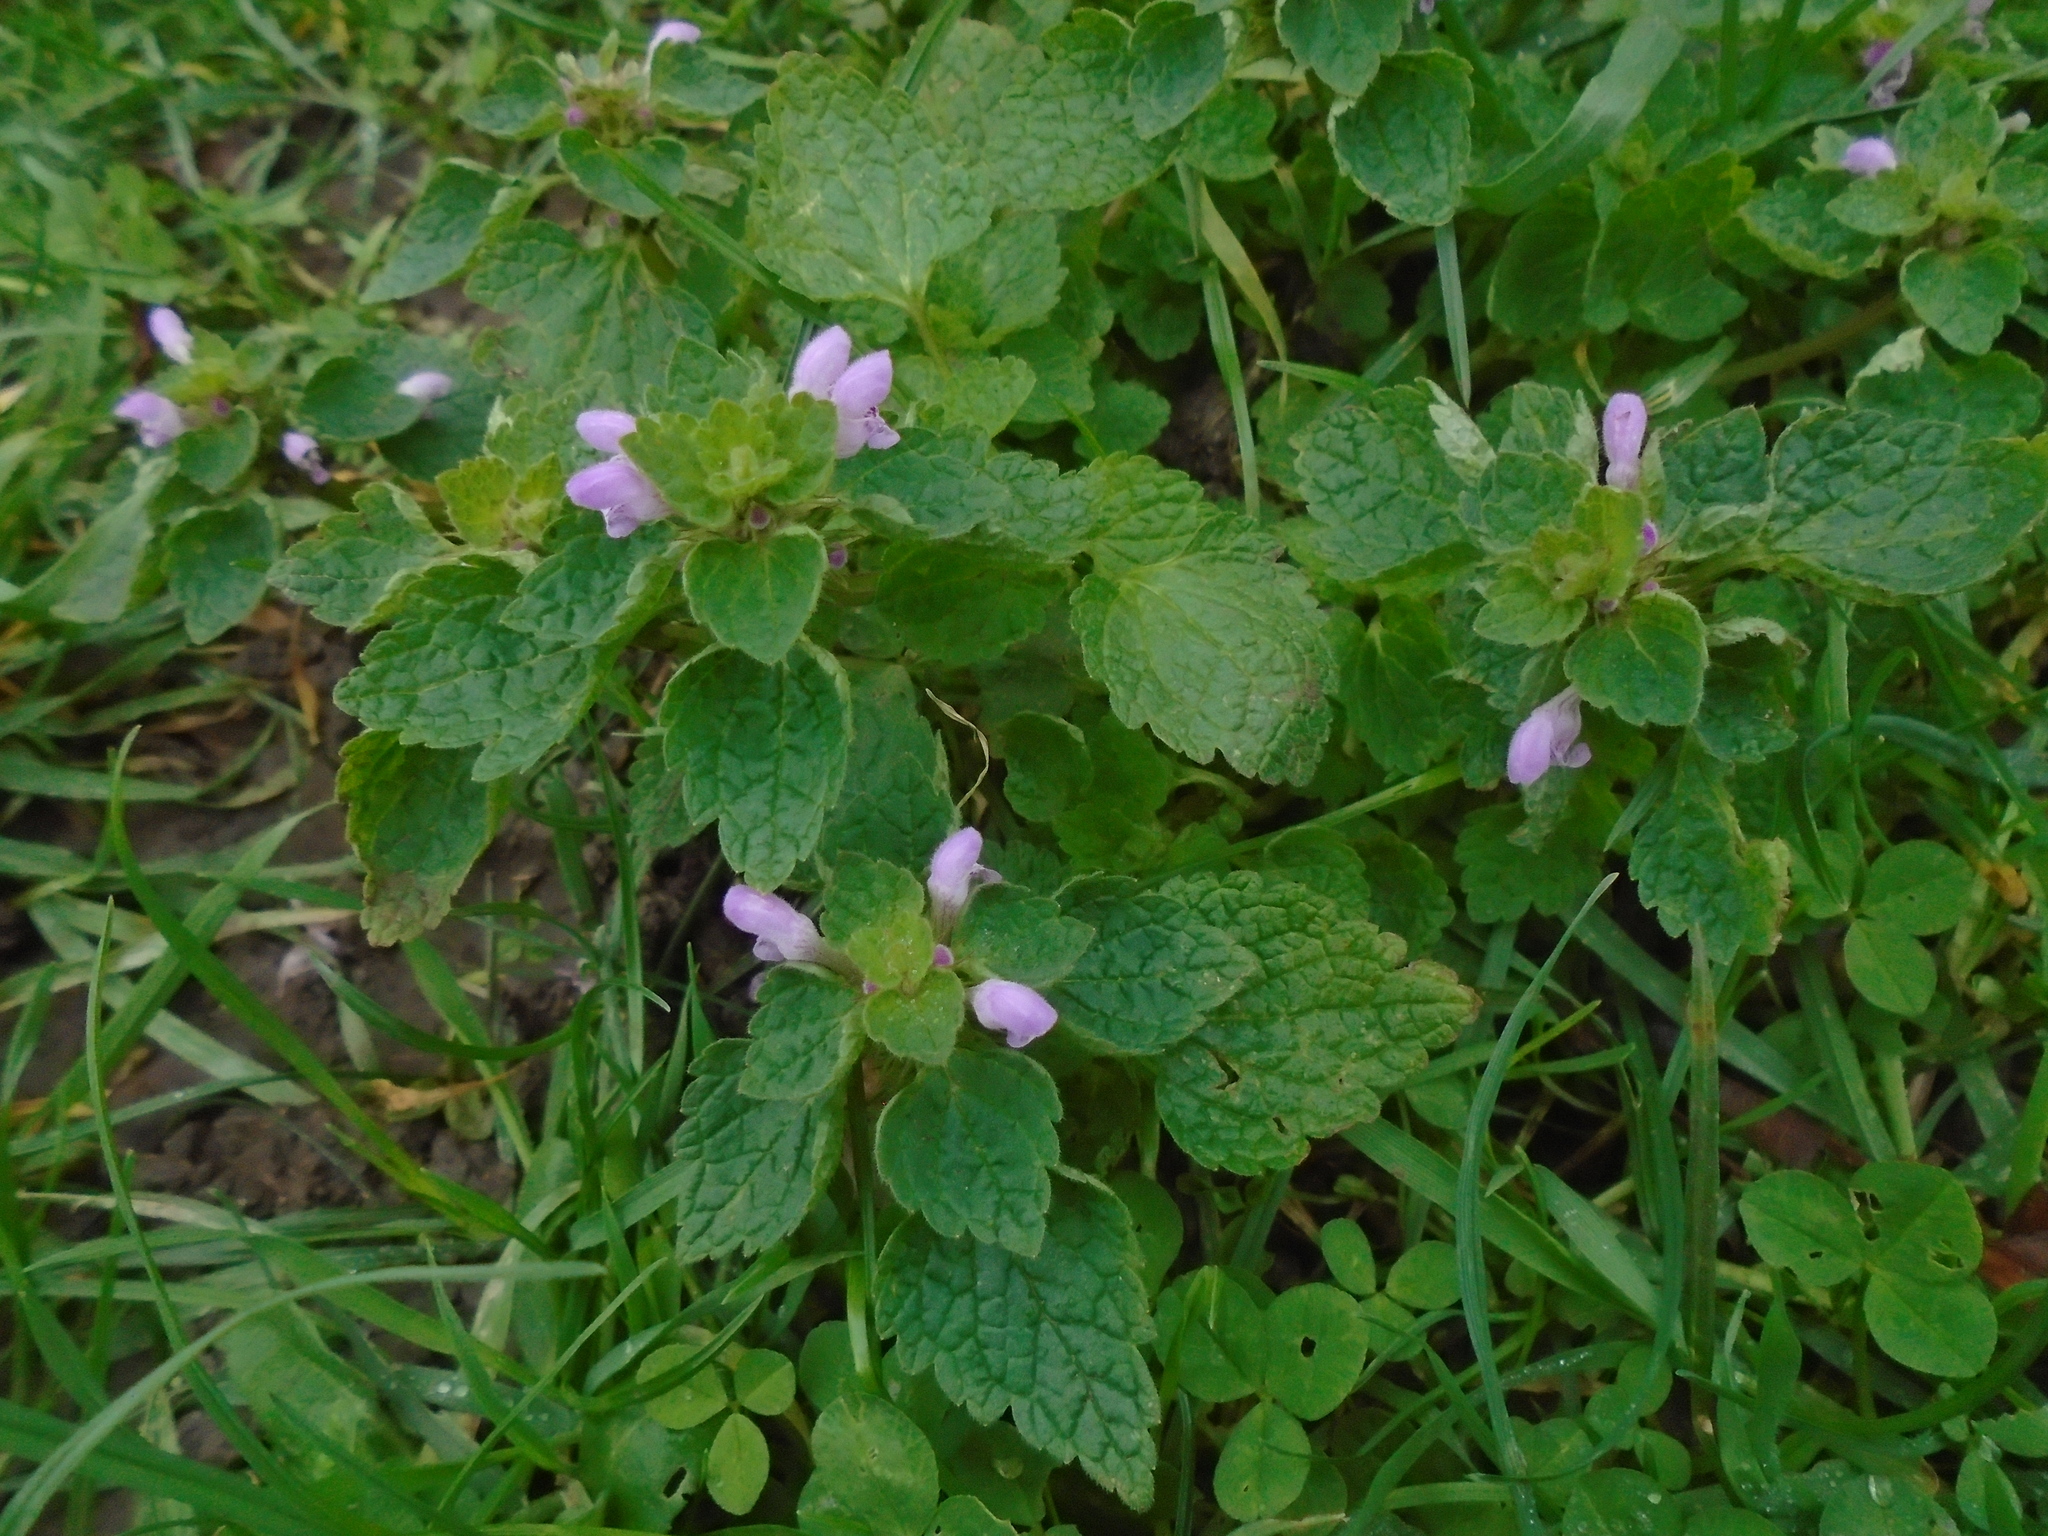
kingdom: Plantae
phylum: Tracheophyta
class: Magnoliopsida
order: Lamiales
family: Lamiaceae
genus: Lamium
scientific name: Lamium purpureum
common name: Red dead-nettle
